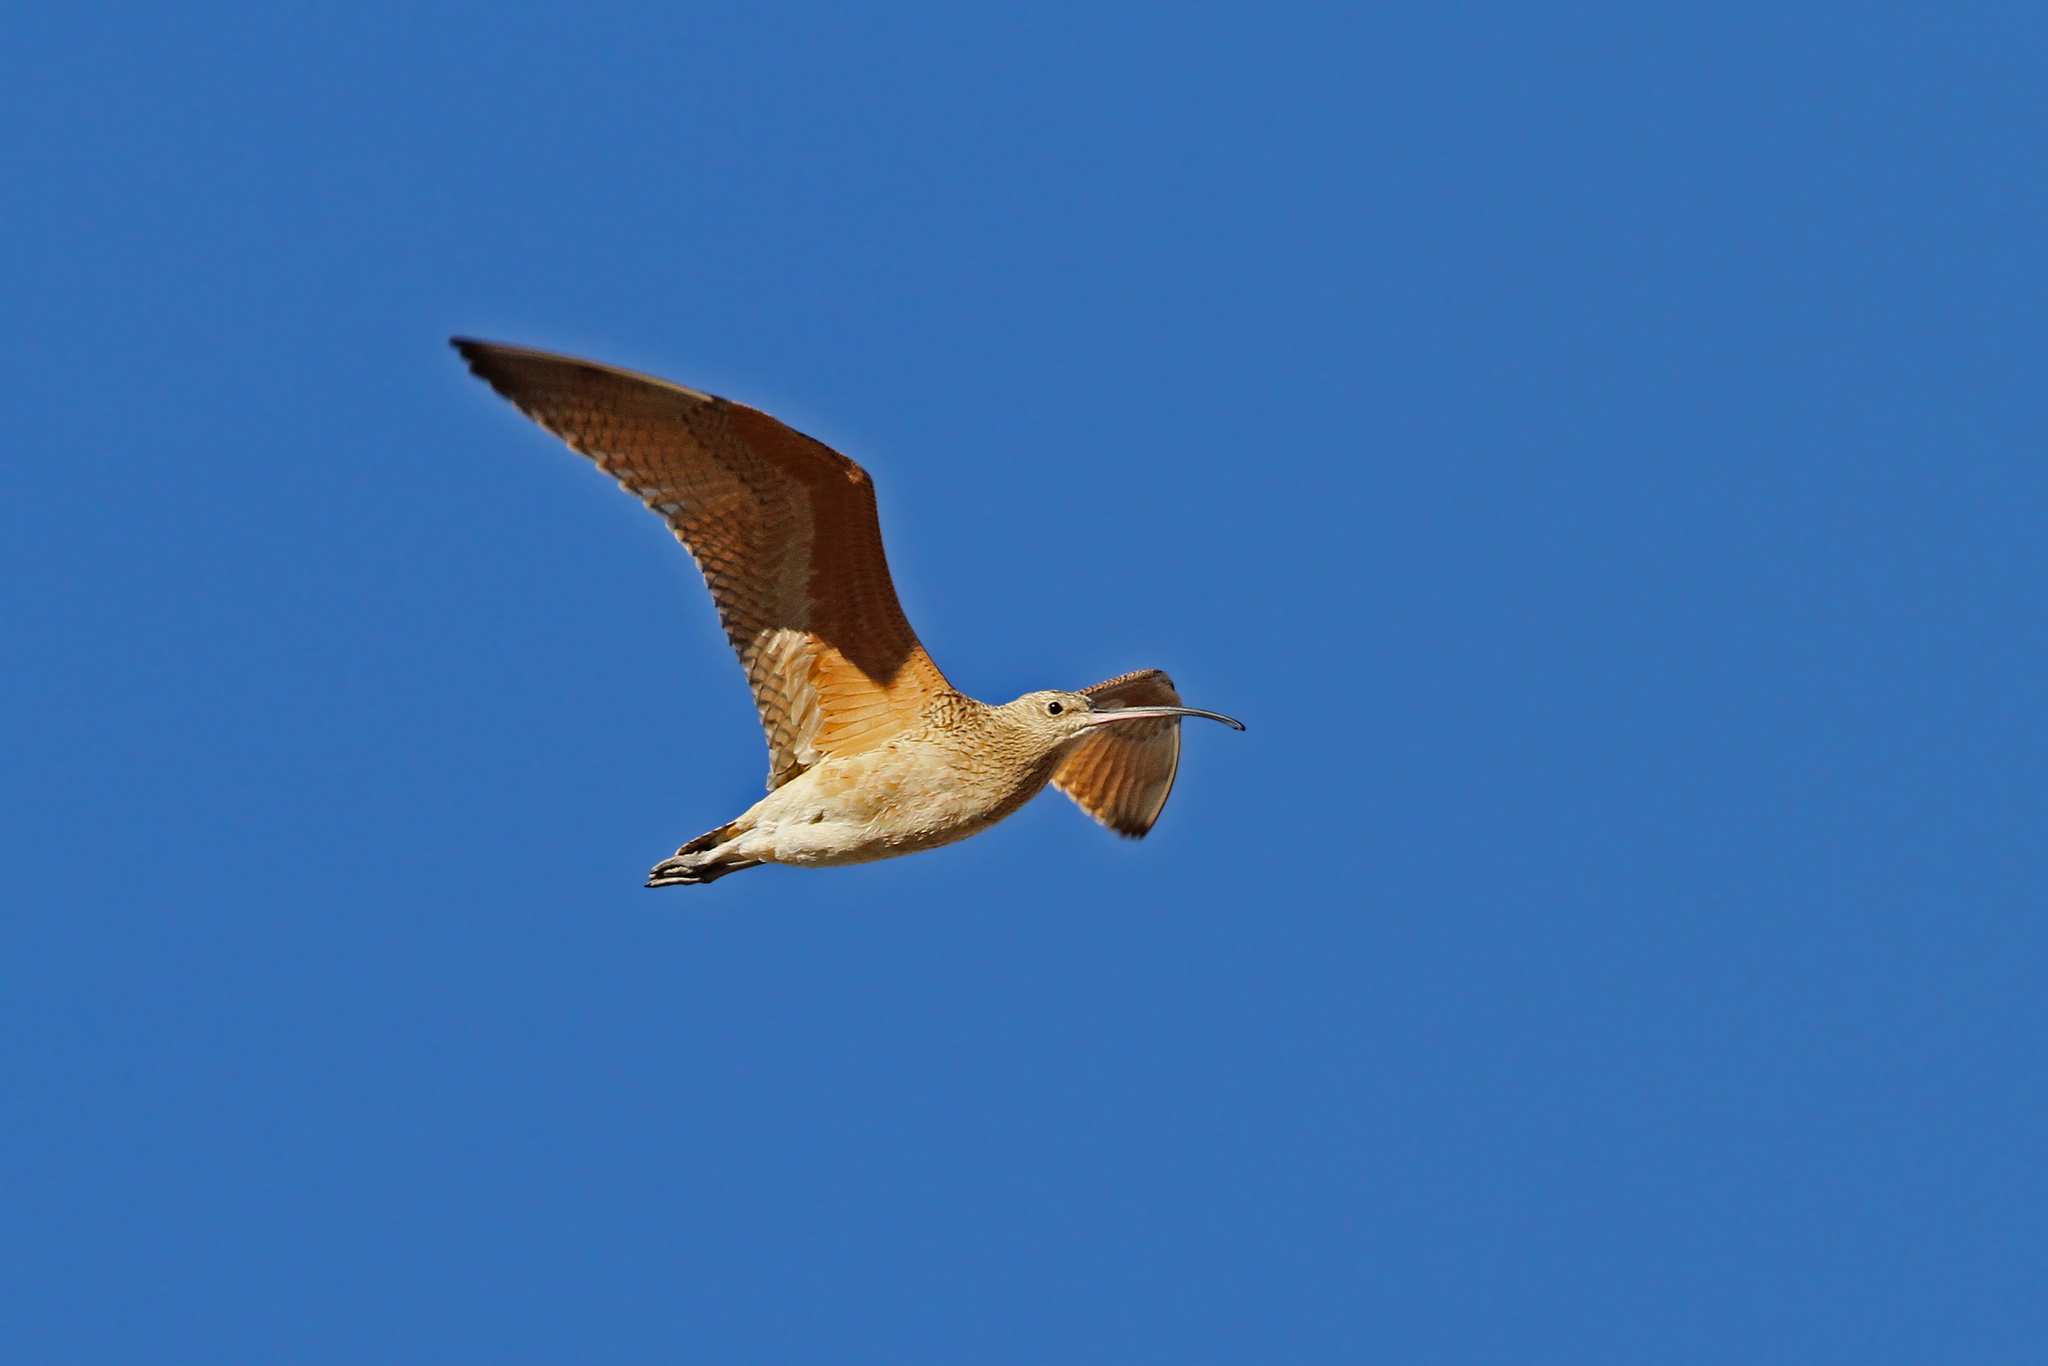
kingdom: Animalia
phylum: Chordata
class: Aves
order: Charadriiformes
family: Scolopacidae
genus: Numenius
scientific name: Numenius americanus
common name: Long-billed curlew
